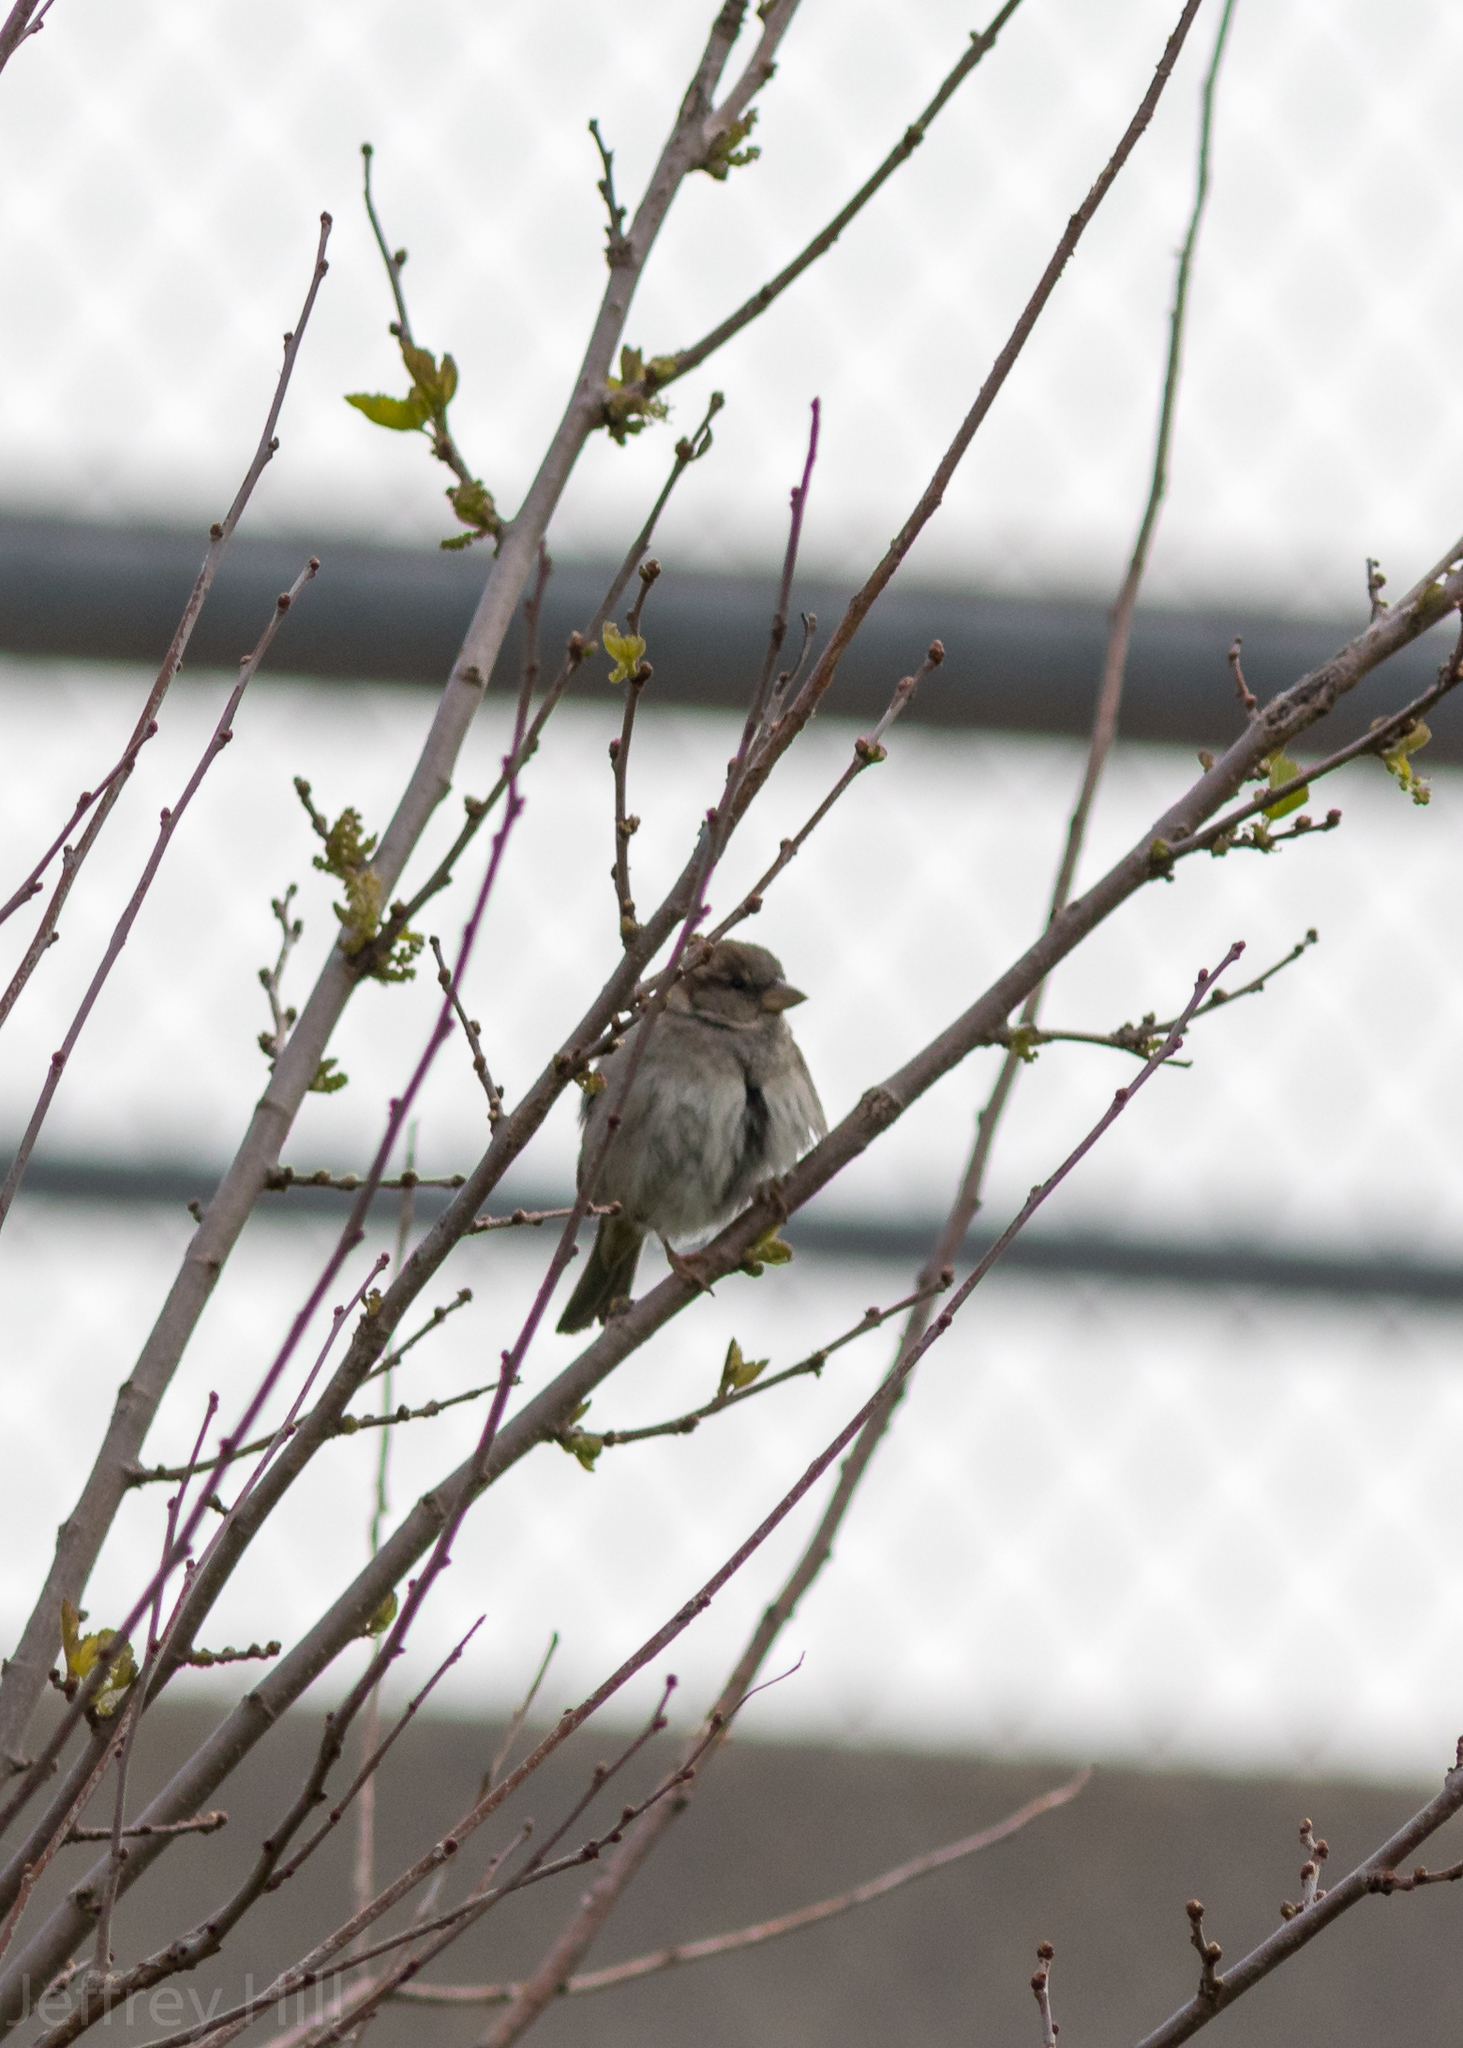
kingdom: Animalia
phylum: Chordata
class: Aves
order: Passeriformes
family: Passeridae
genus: Passer
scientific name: Passer domesticus
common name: House sparrow
